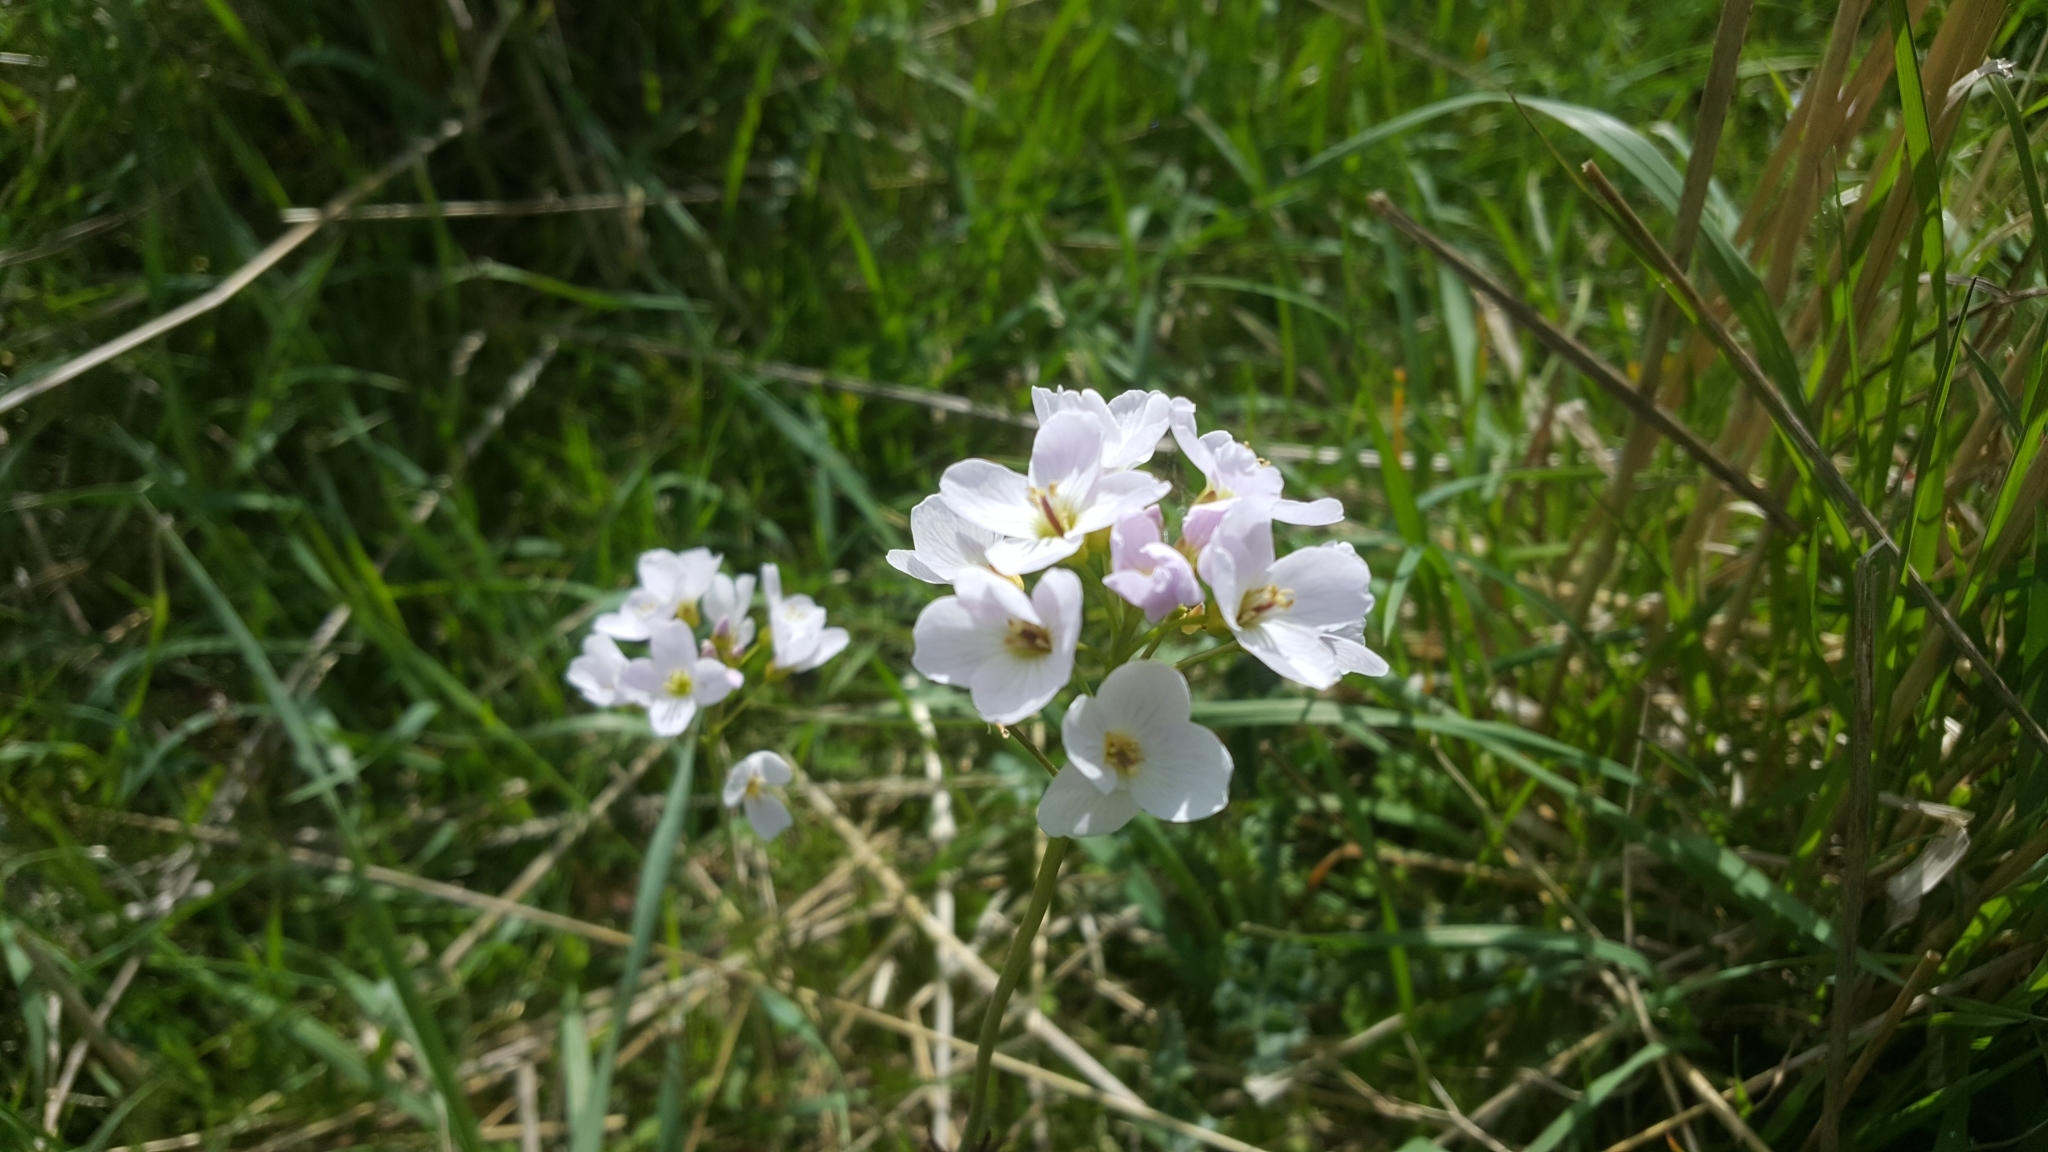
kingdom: Plantae
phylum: Tracheophyta
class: Magnoliopsida
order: Brassicales
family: Brassicaceae
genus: Cardamine
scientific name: Cardamine pratensis
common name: Cuckoo flower
